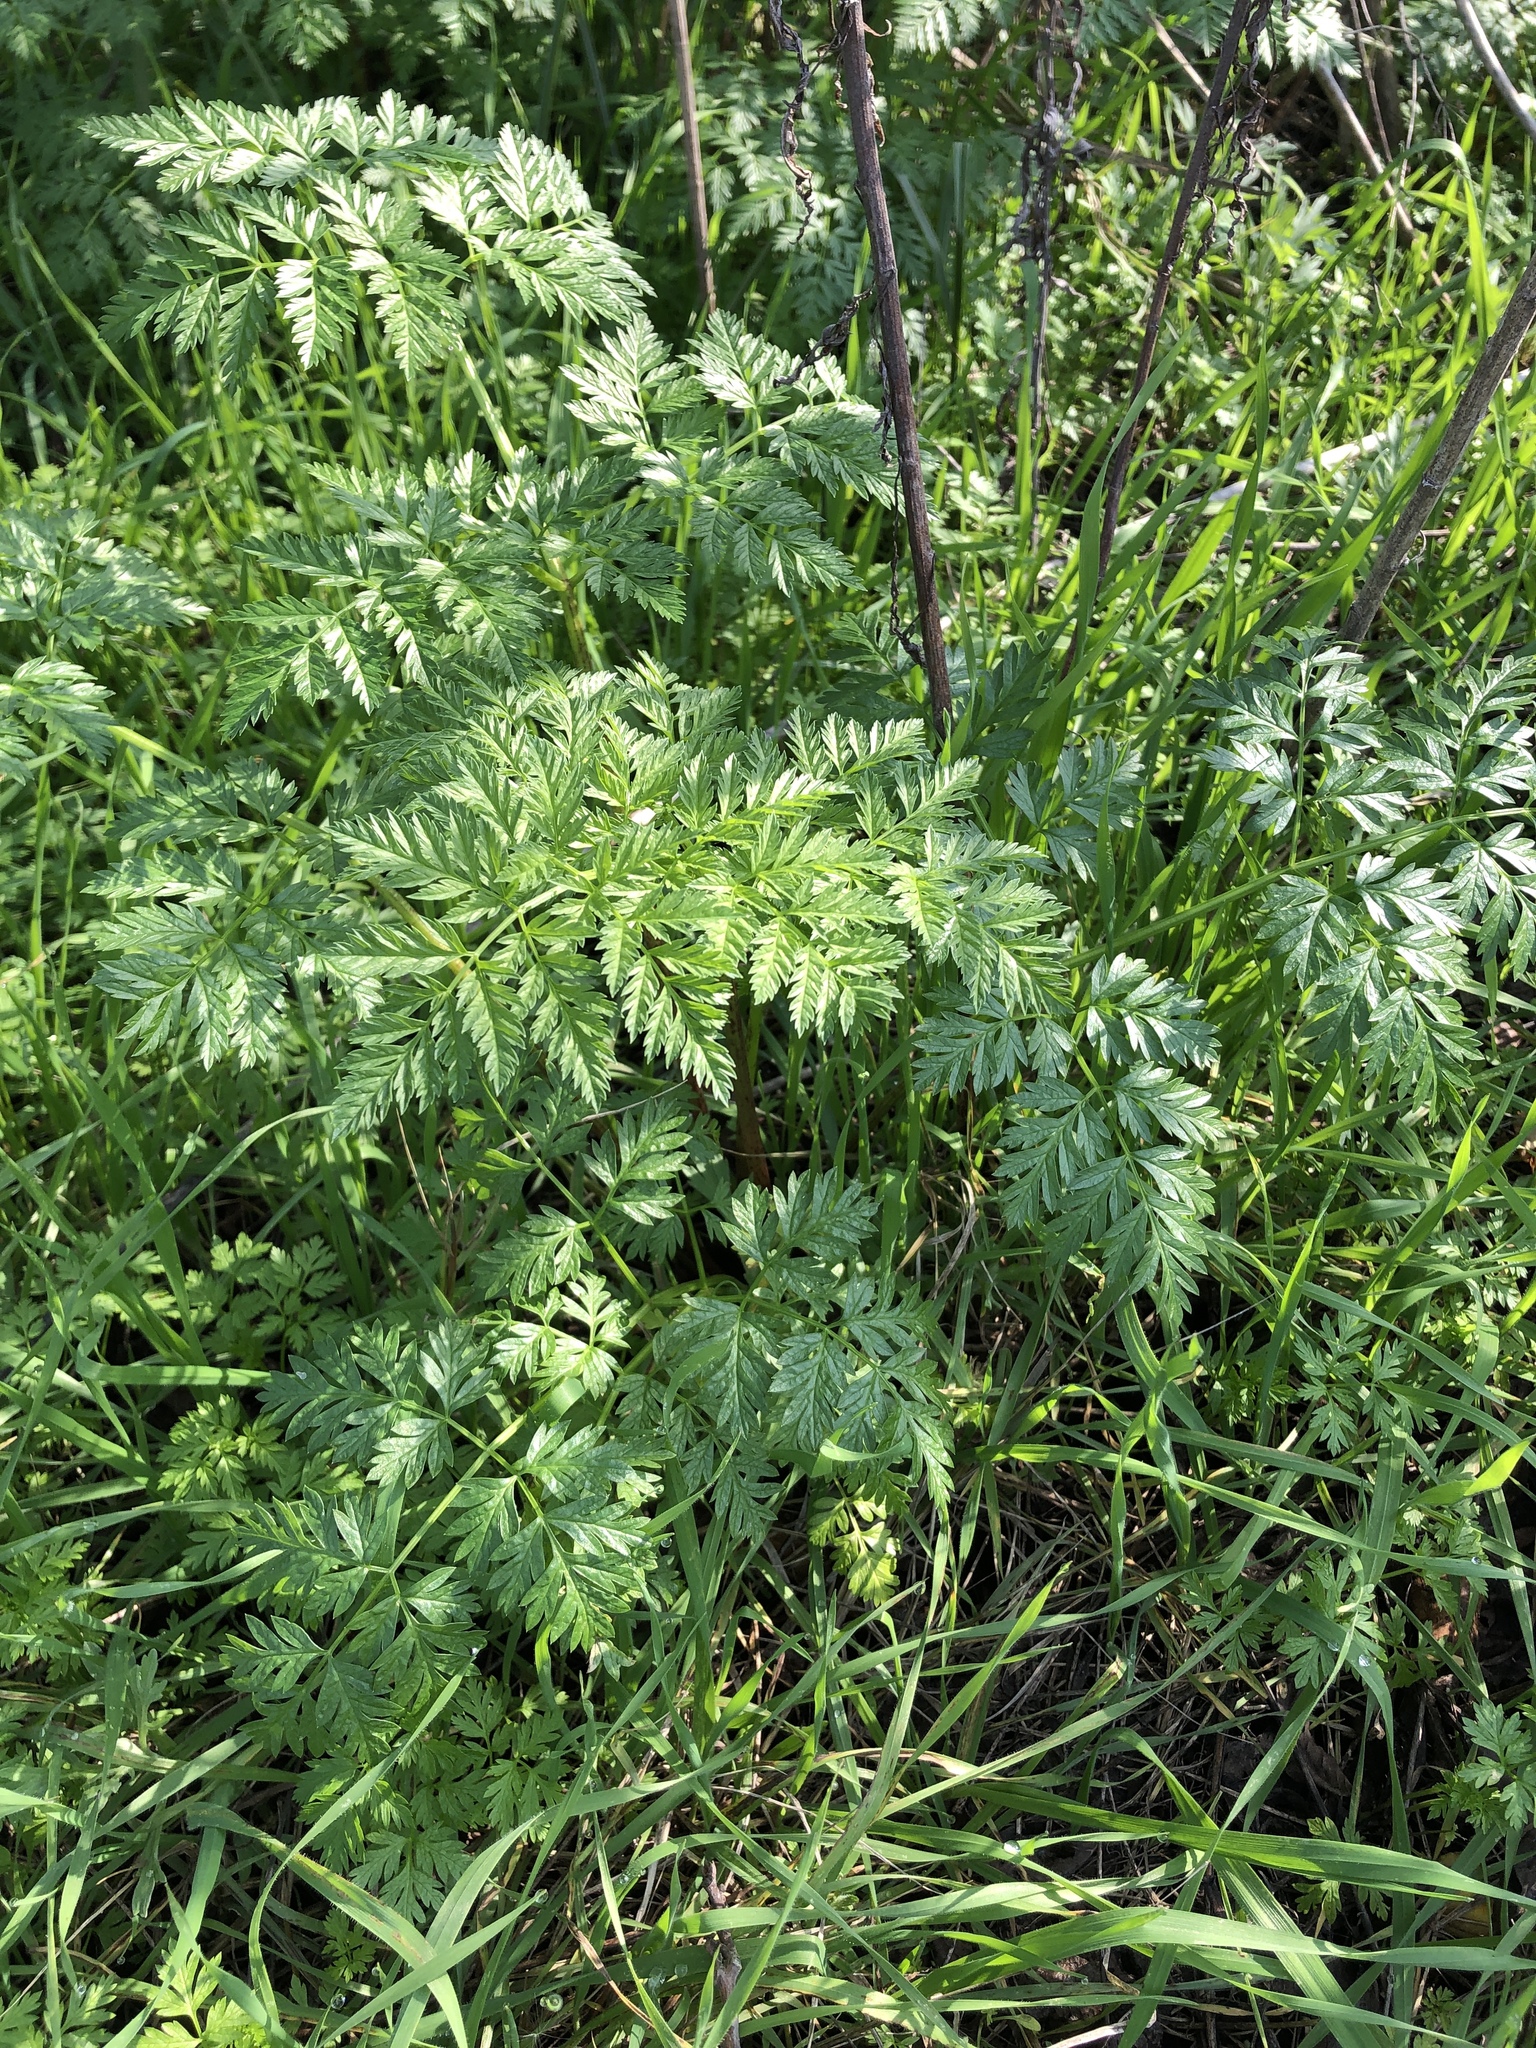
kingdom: Plantae
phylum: Tracheophyta
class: Magnoliopsida
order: Apiales
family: Apiaceae
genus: Conium
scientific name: Conium maculatum
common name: Hemlock
